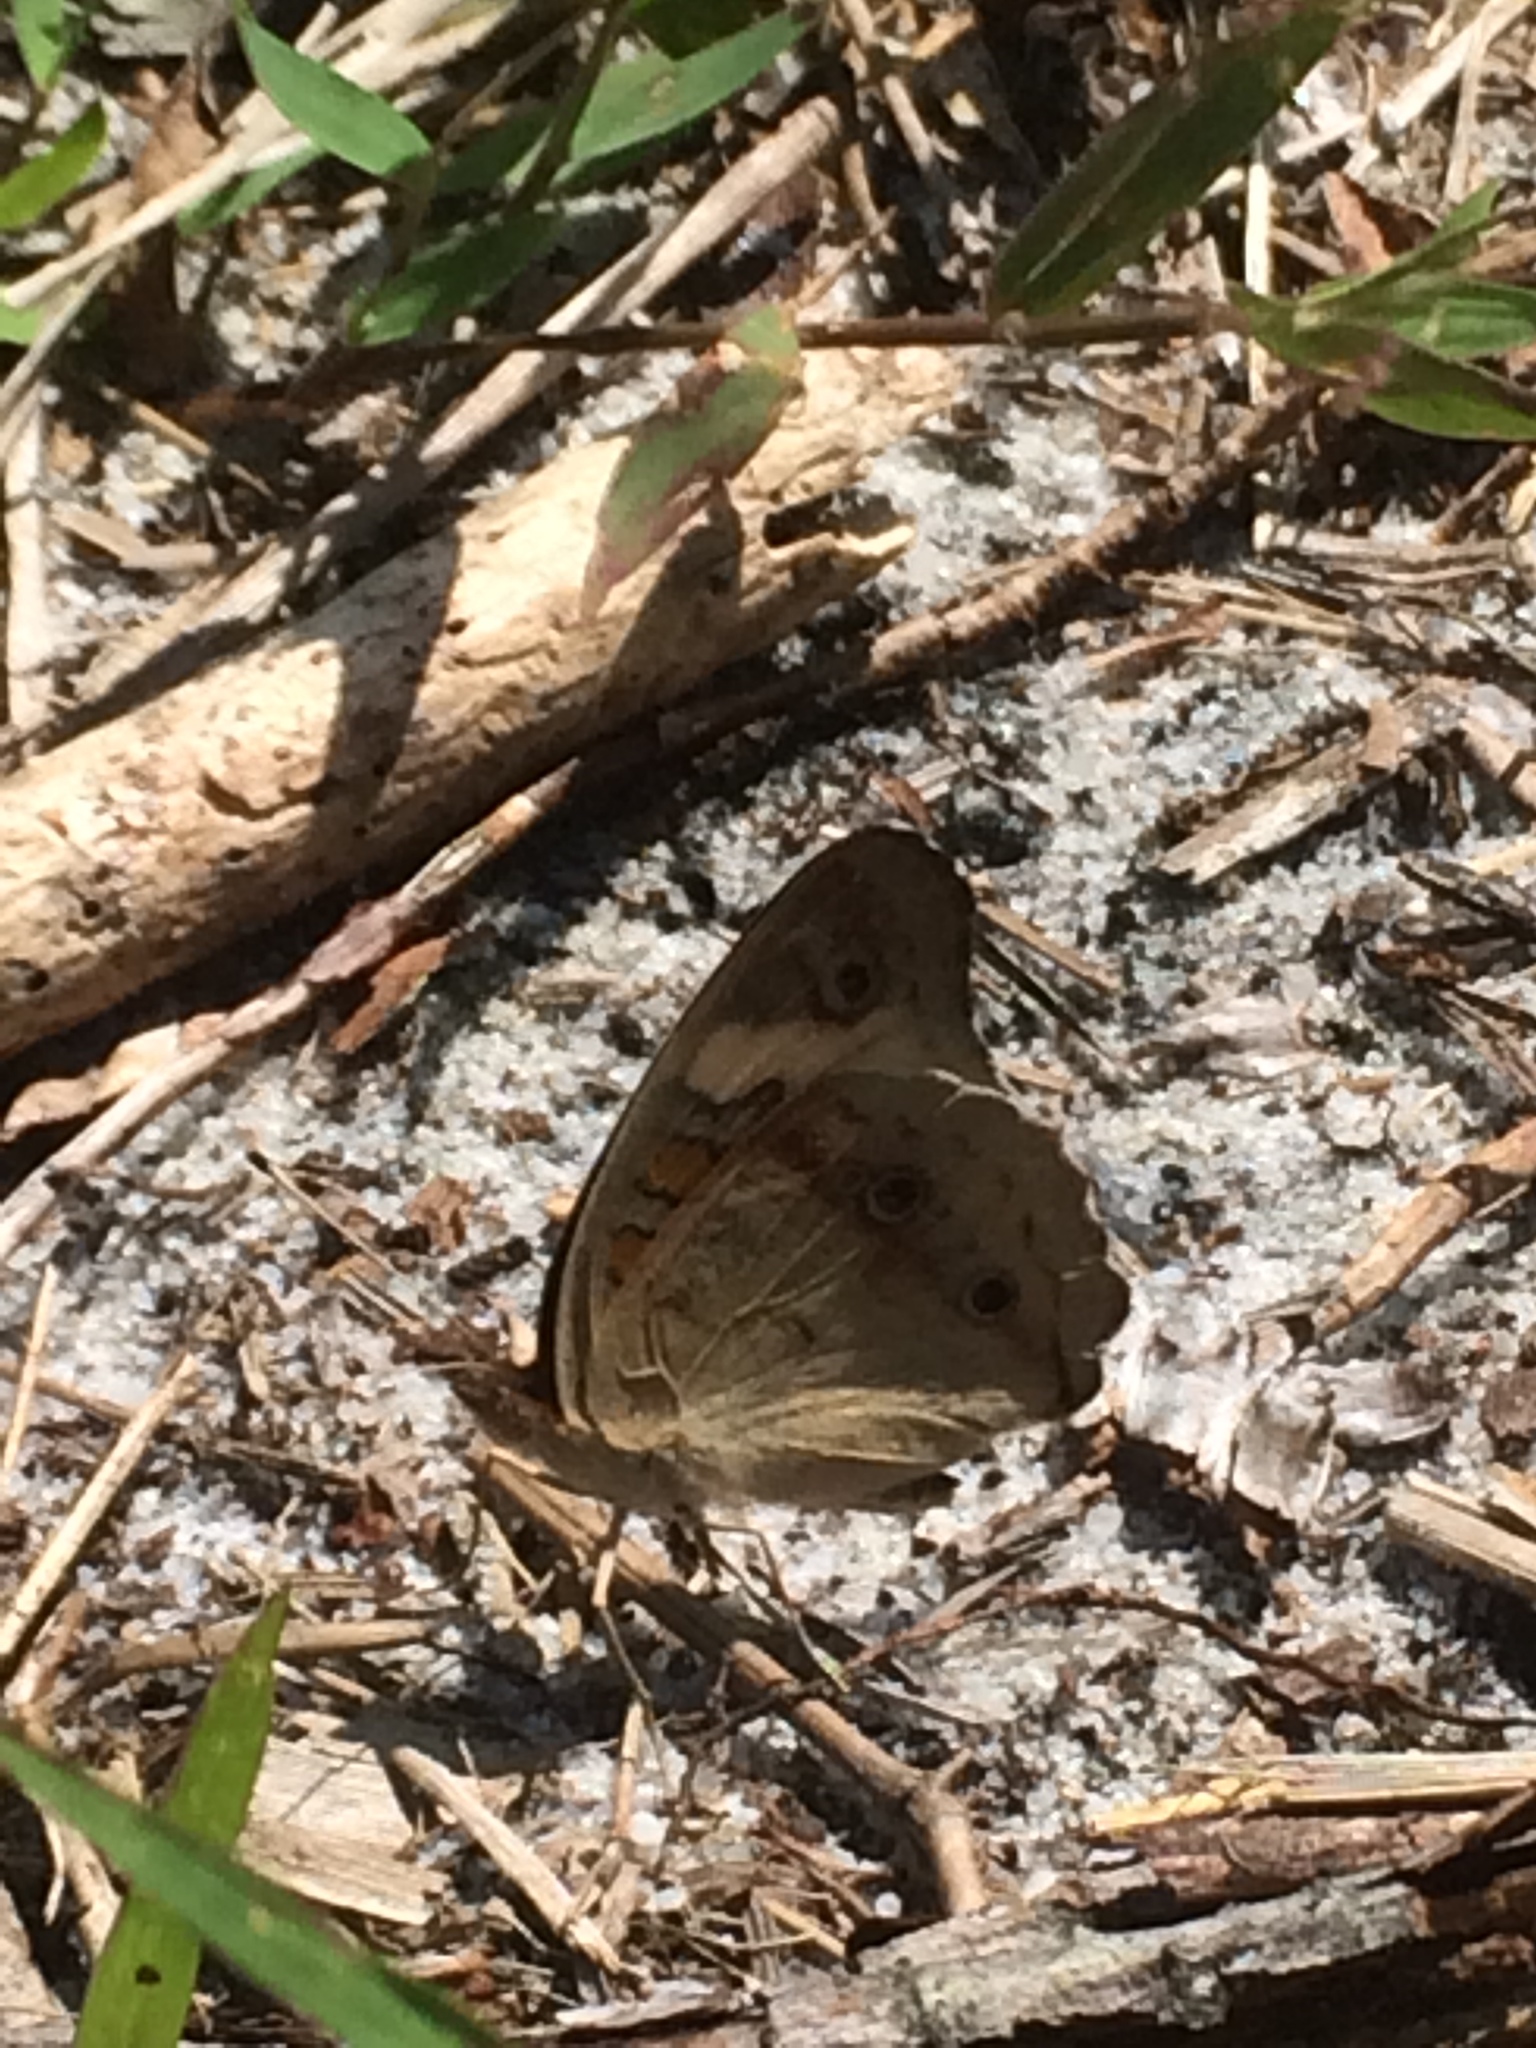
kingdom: Animalia
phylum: Arthropoda
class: Insecta
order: Lepidoptera
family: Nymphalidae
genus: Junonia
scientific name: Junonia coenia
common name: Common buckeye
